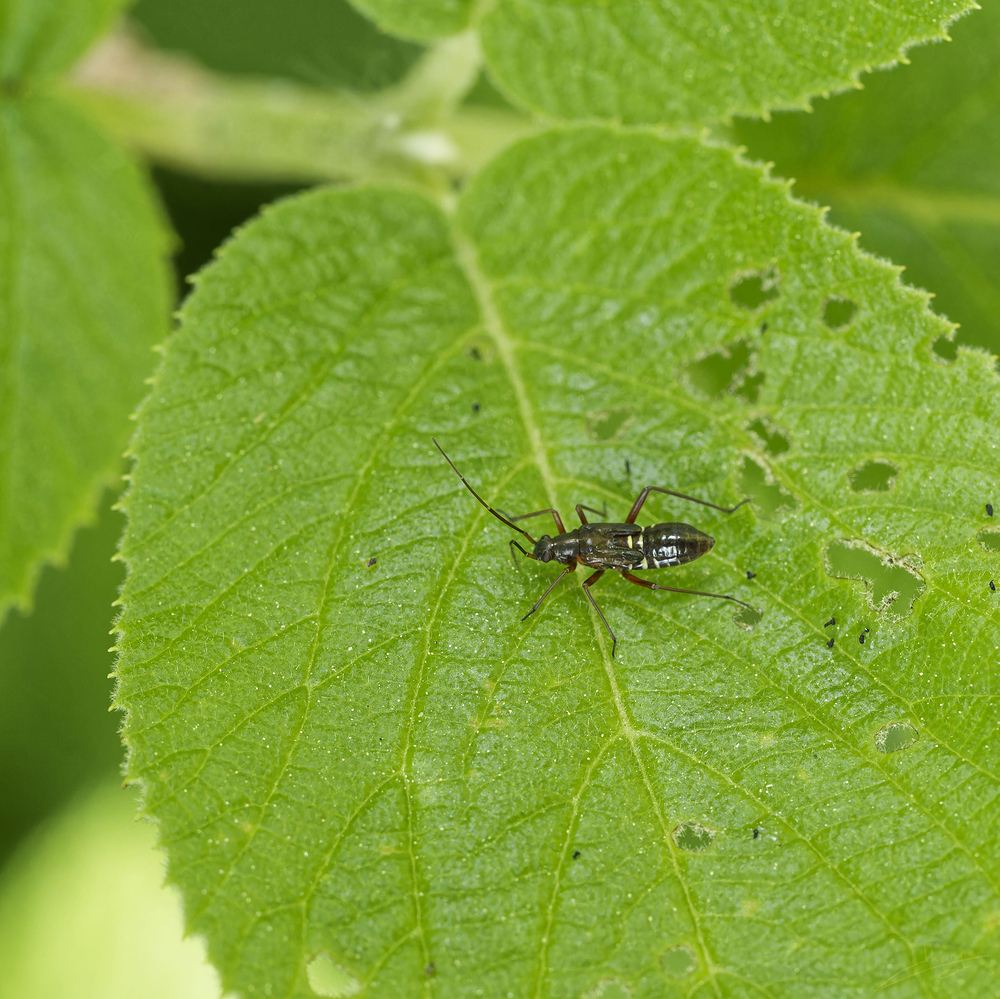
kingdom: Animalia
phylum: Arthropoda
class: Insecta
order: Hemiptera
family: Miridae
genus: Miris
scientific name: Miris striatus
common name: Fine streaked bugkin
